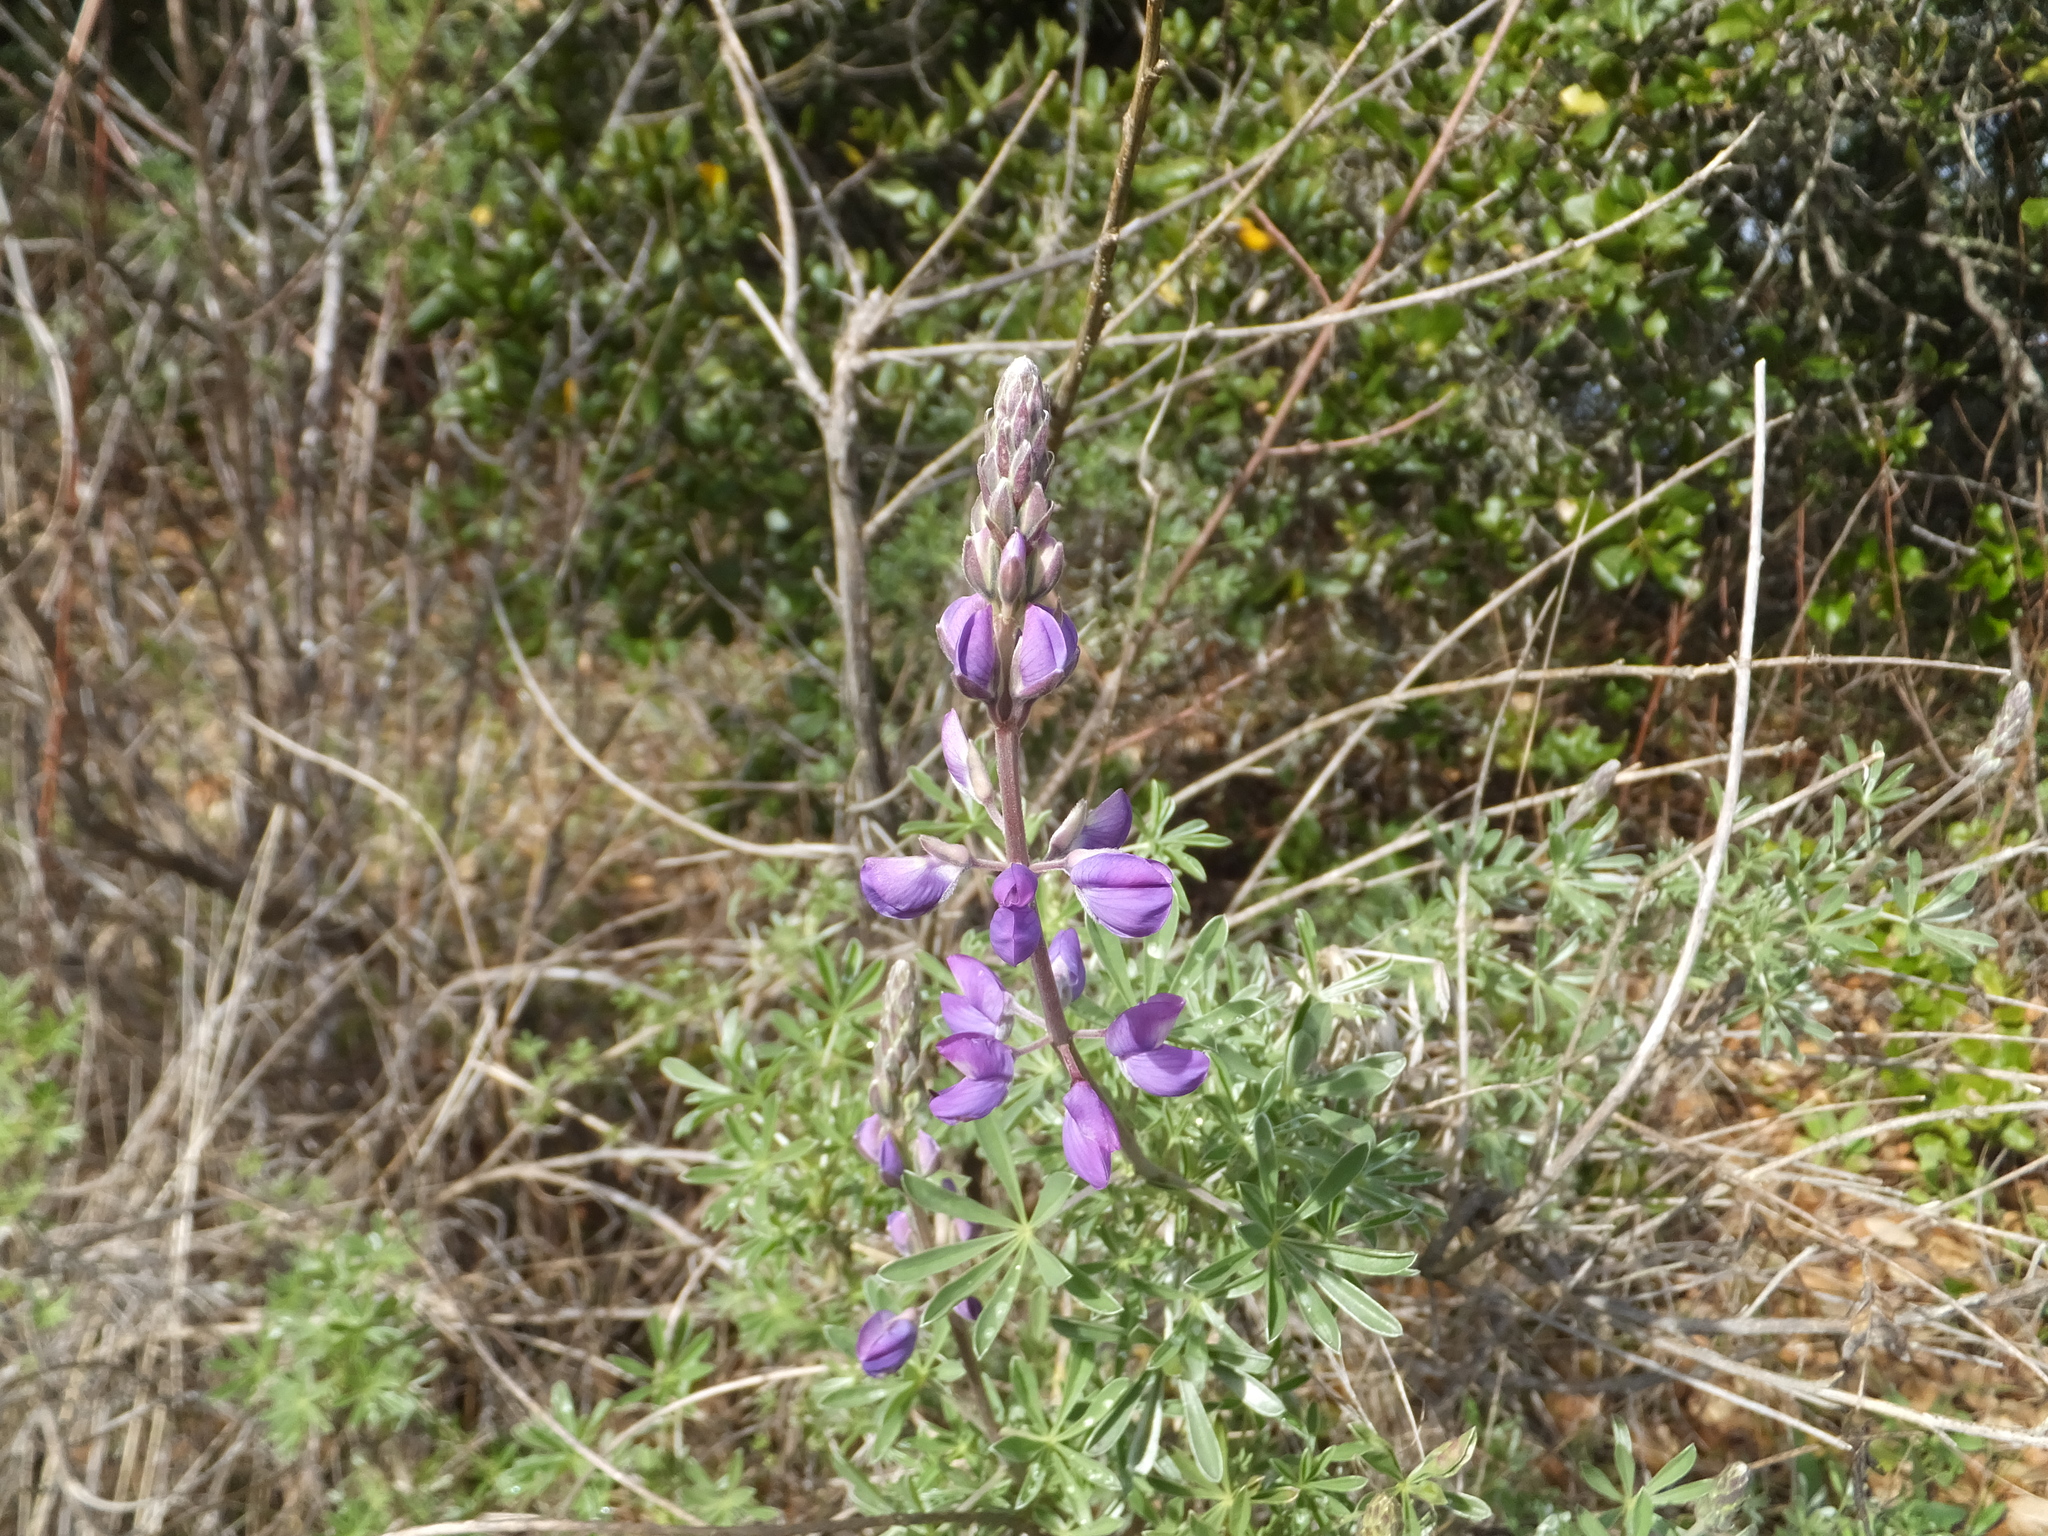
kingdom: Plantae
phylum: Tracheophyta
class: Magnoliopsida
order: Fabales
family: Fabaceae
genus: Lupinus
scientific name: Lupinus albifrons
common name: Foothill lupine
